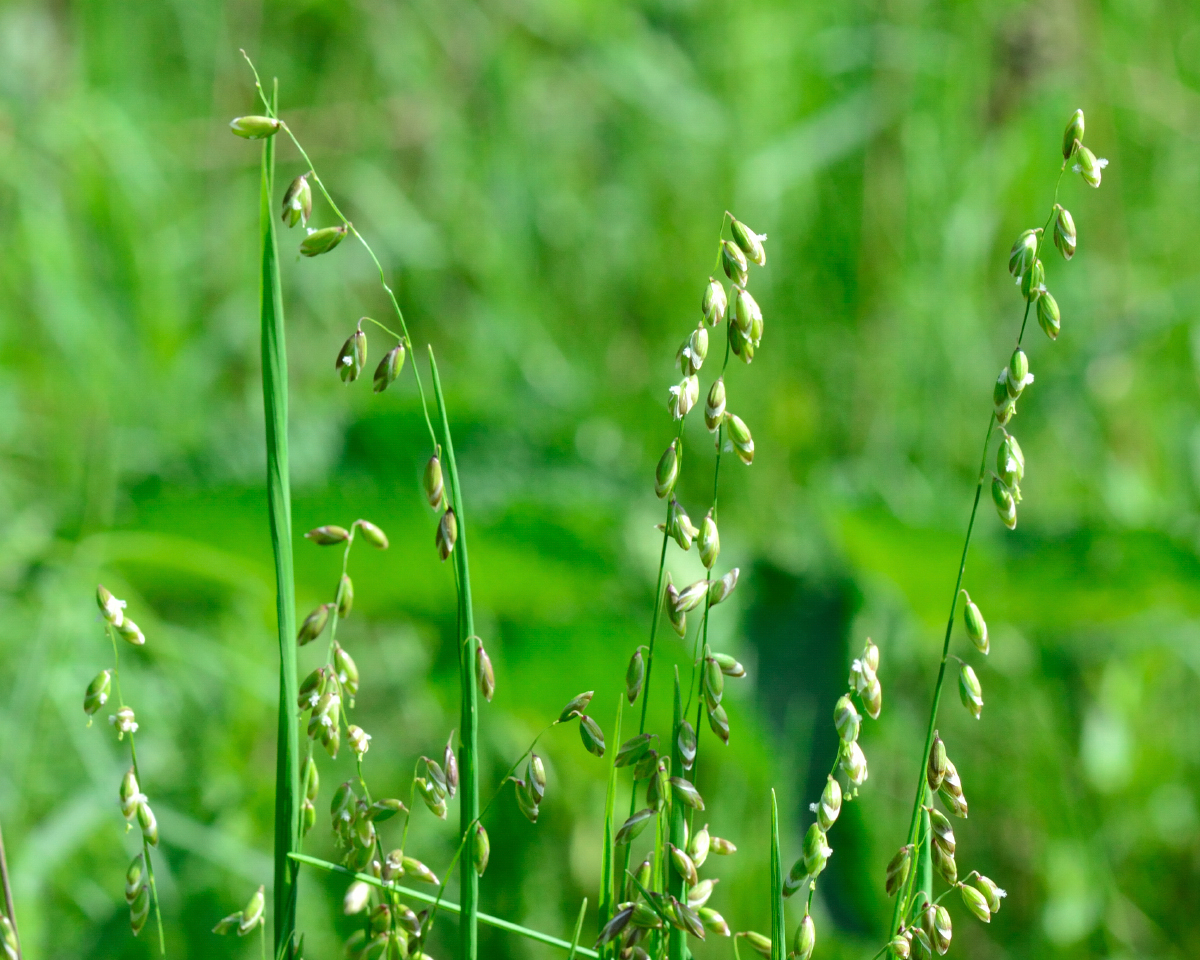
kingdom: Plantae
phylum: Tracheophyta
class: Liliopsida
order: Poales
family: Poaceae
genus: Melica
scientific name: Melica picta
